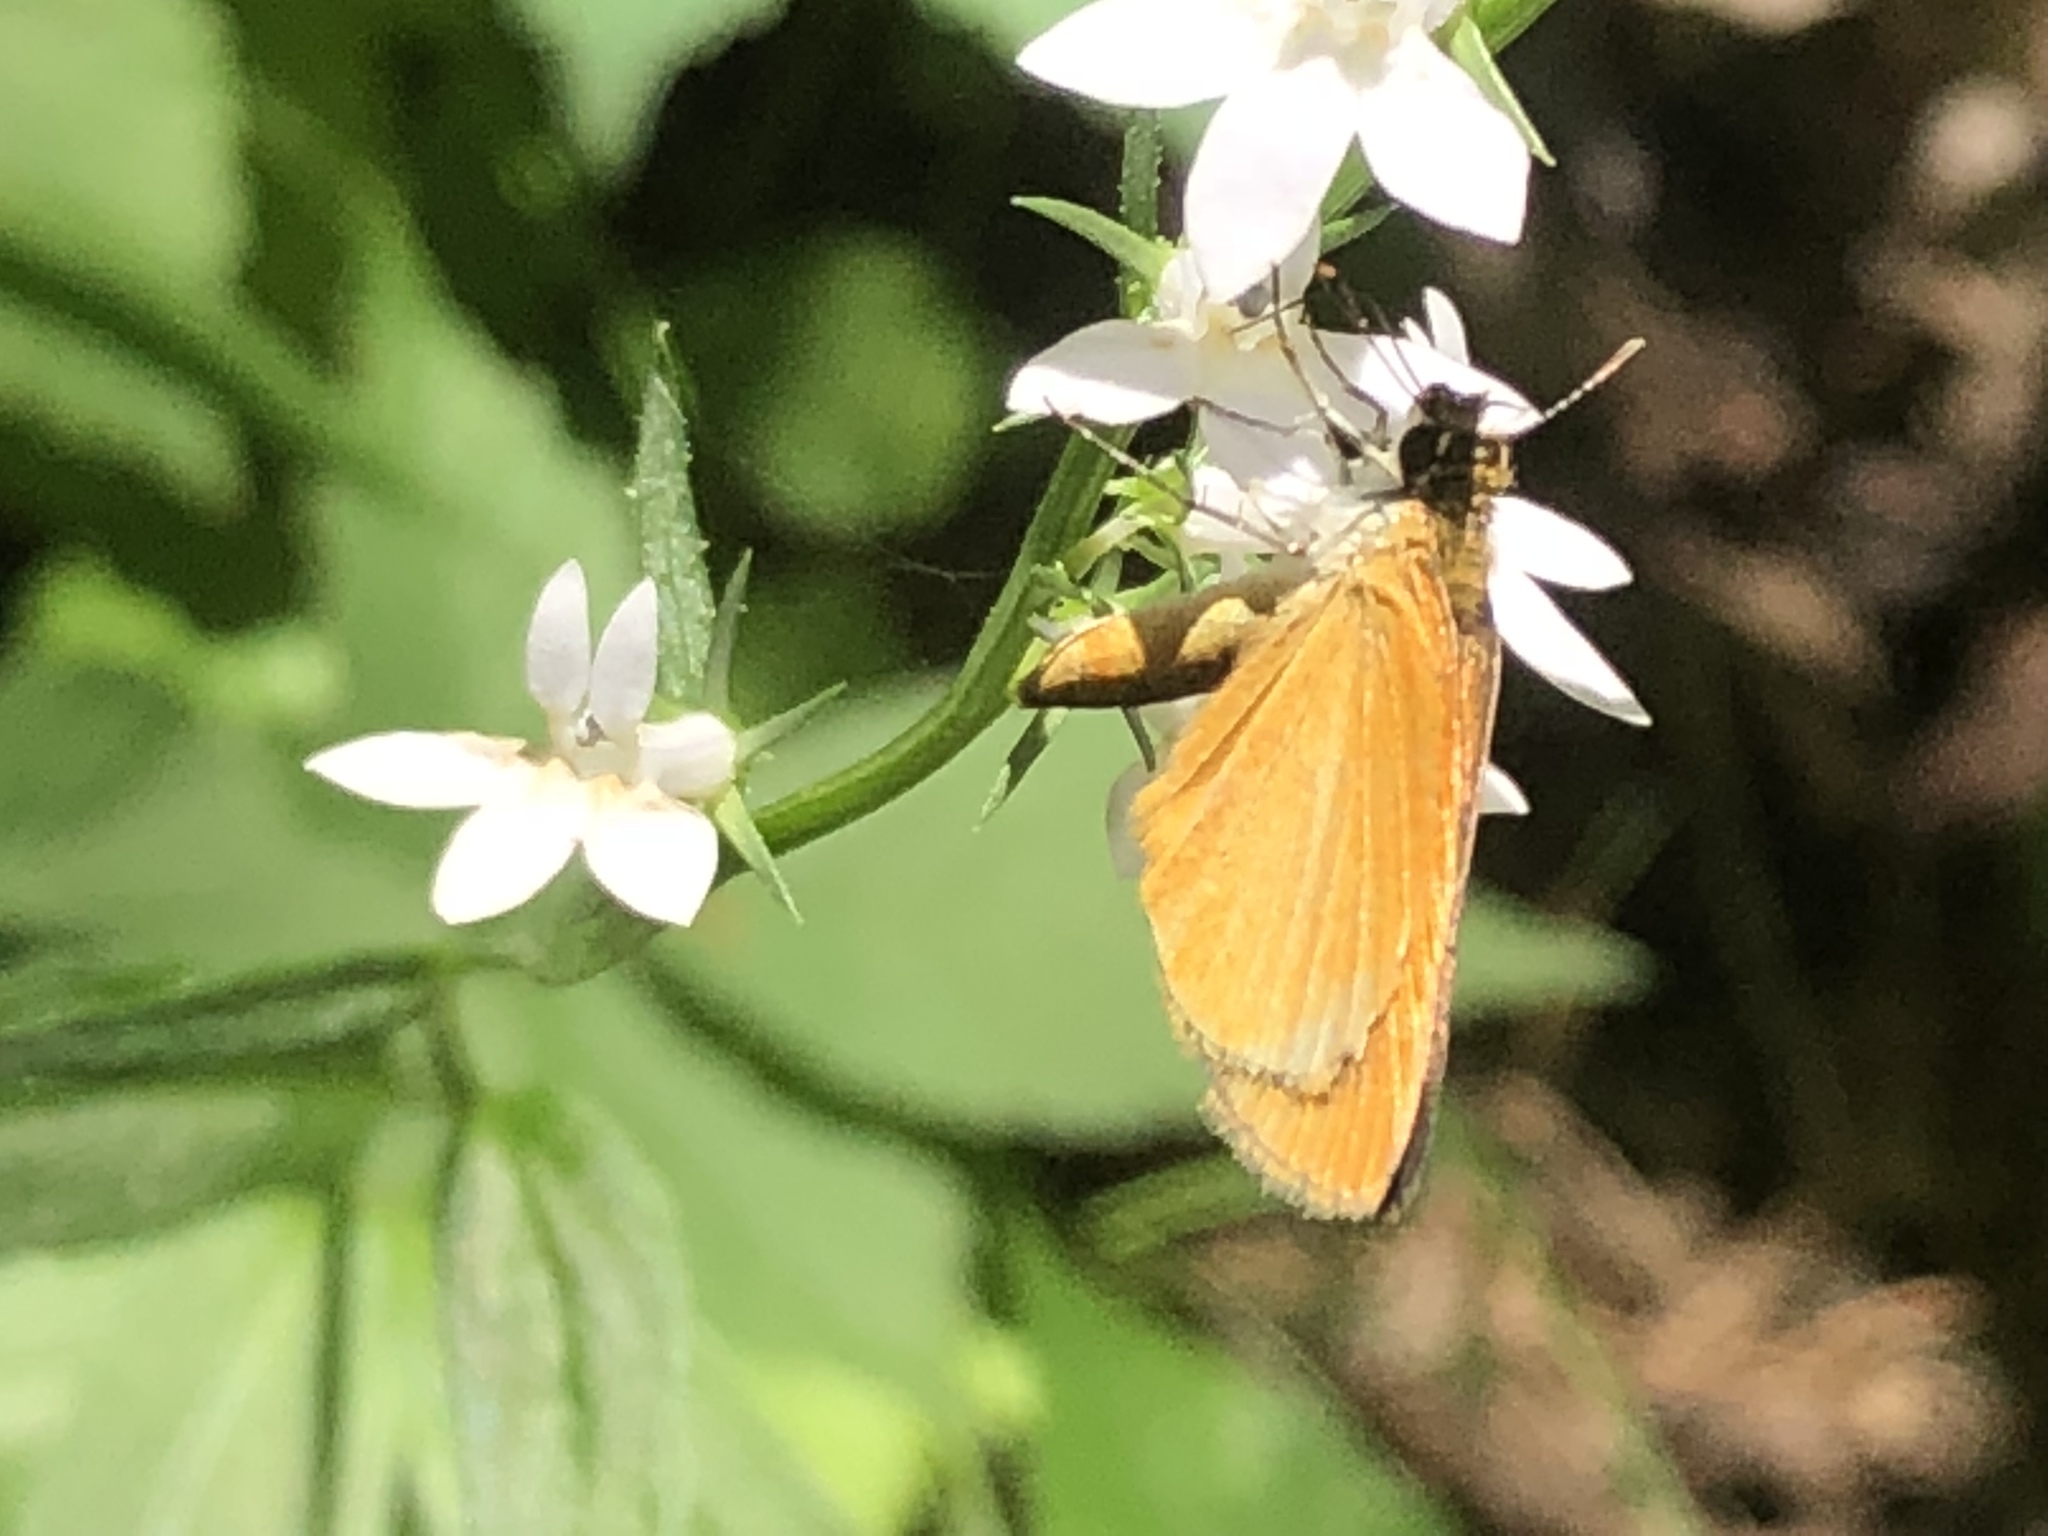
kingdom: Animalia
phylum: Arthropoda
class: Insecta
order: Lepidoptera
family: Hesperiidae
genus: Ancyloxypha
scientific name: Ancyloxypha numitor
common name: Least skipper
